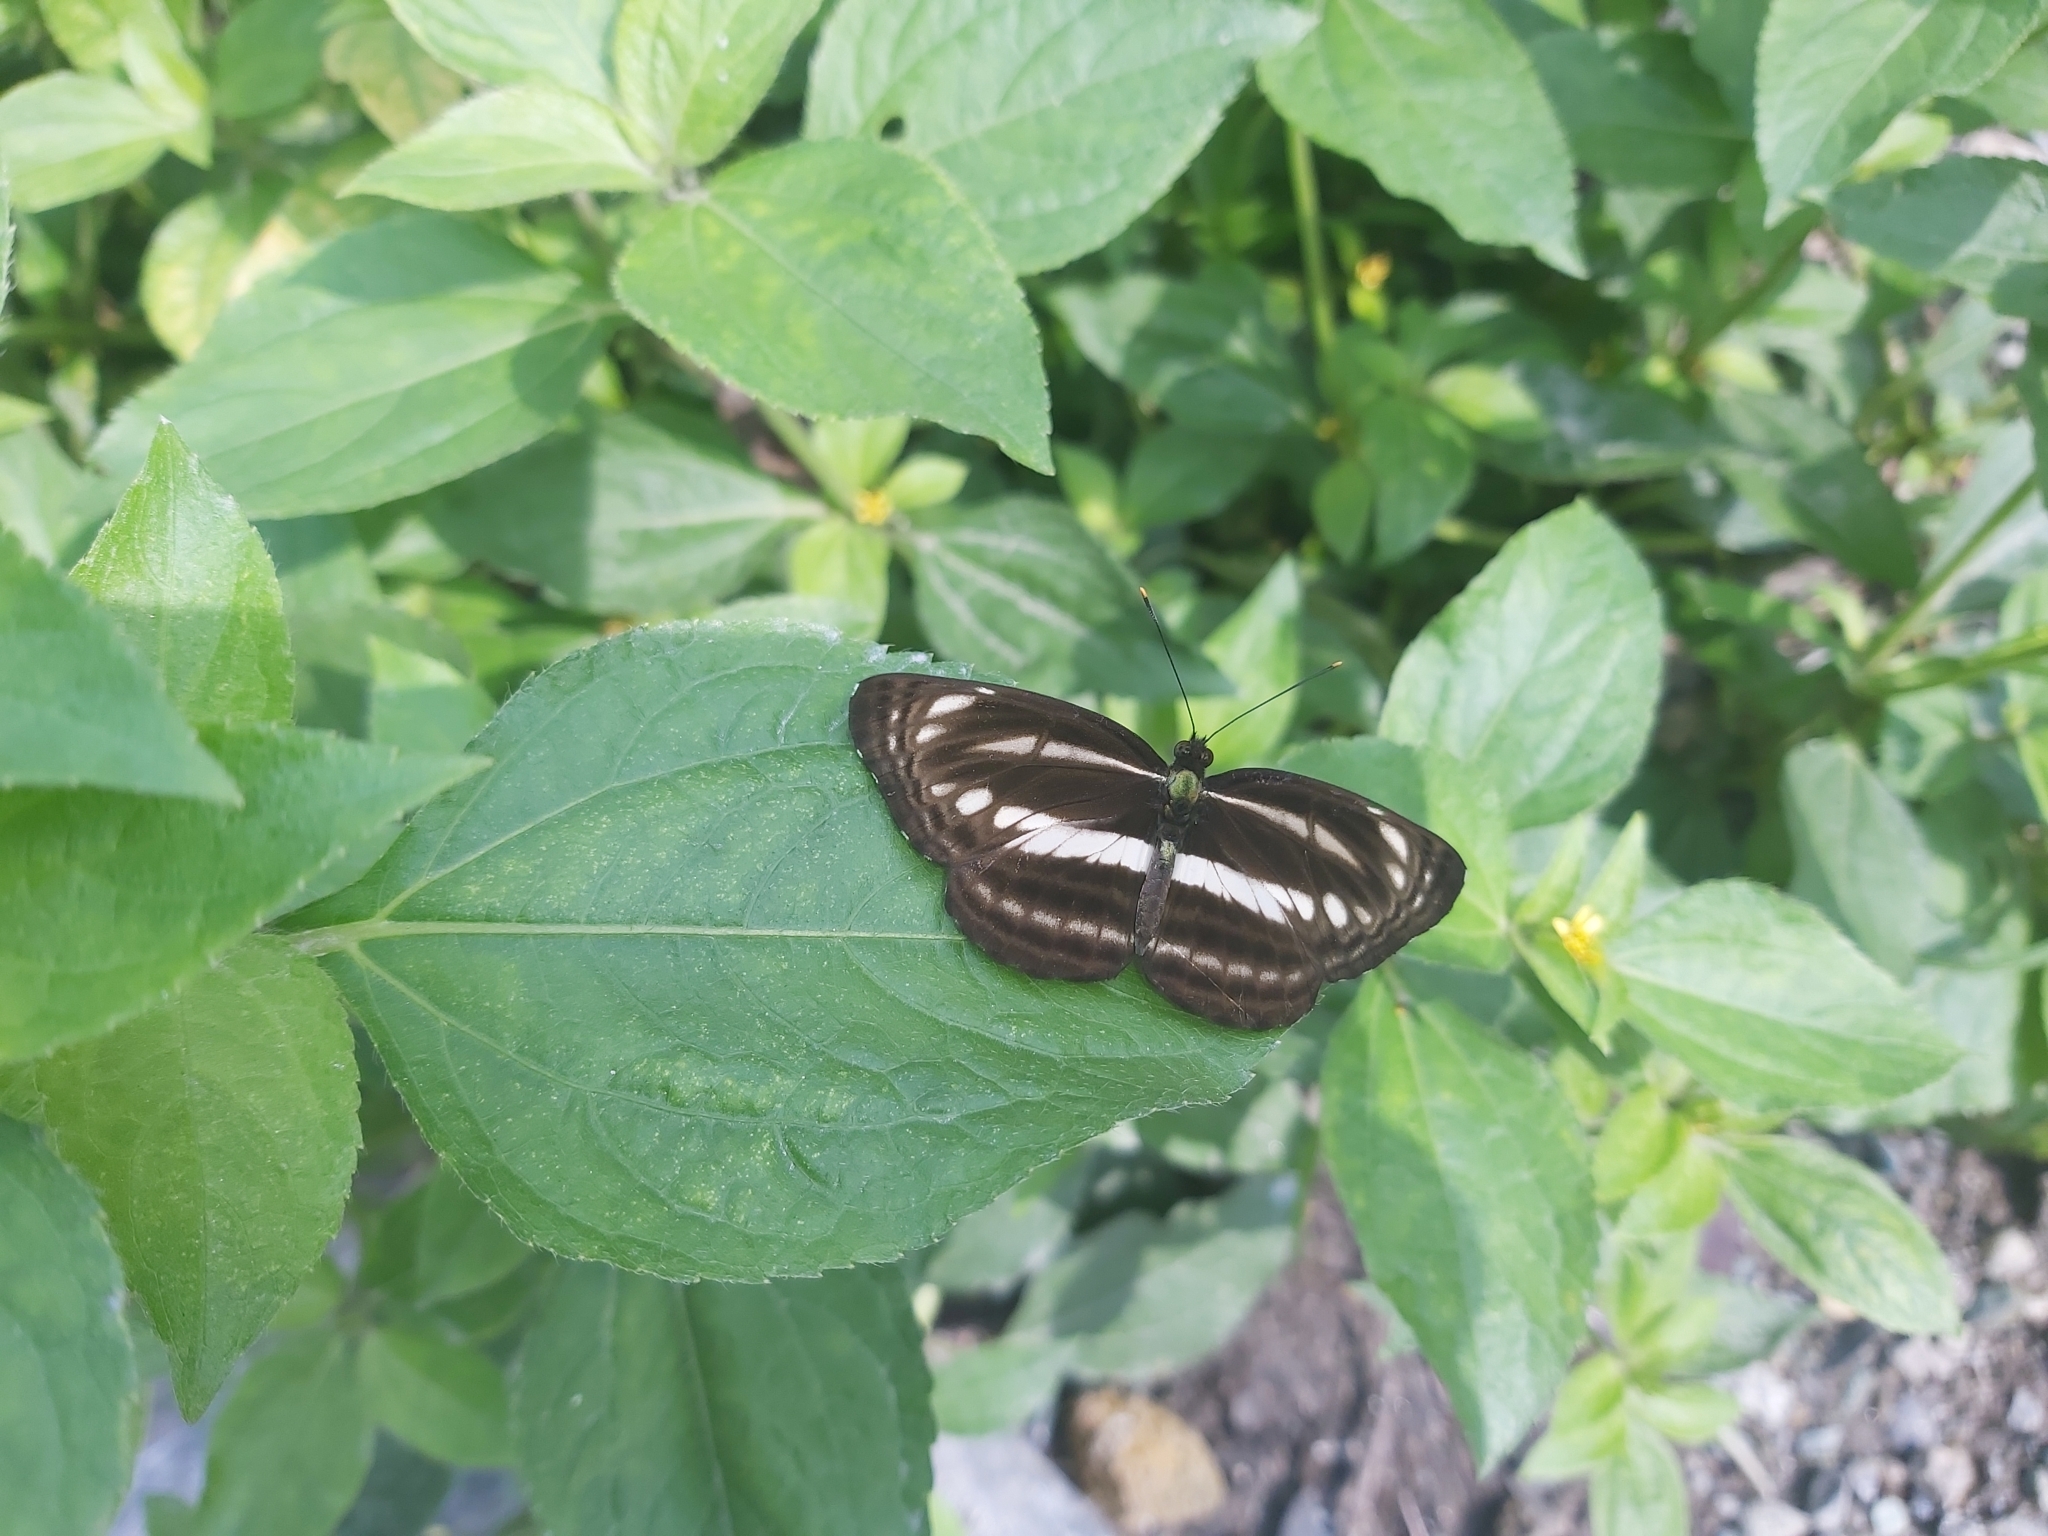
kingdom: Animalia
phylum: Arthropoda
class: Insecta
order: Lepidoptera
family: Nymphalidae
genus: Neptis
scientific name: Neptis clinia
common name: Southern sullied sailer
